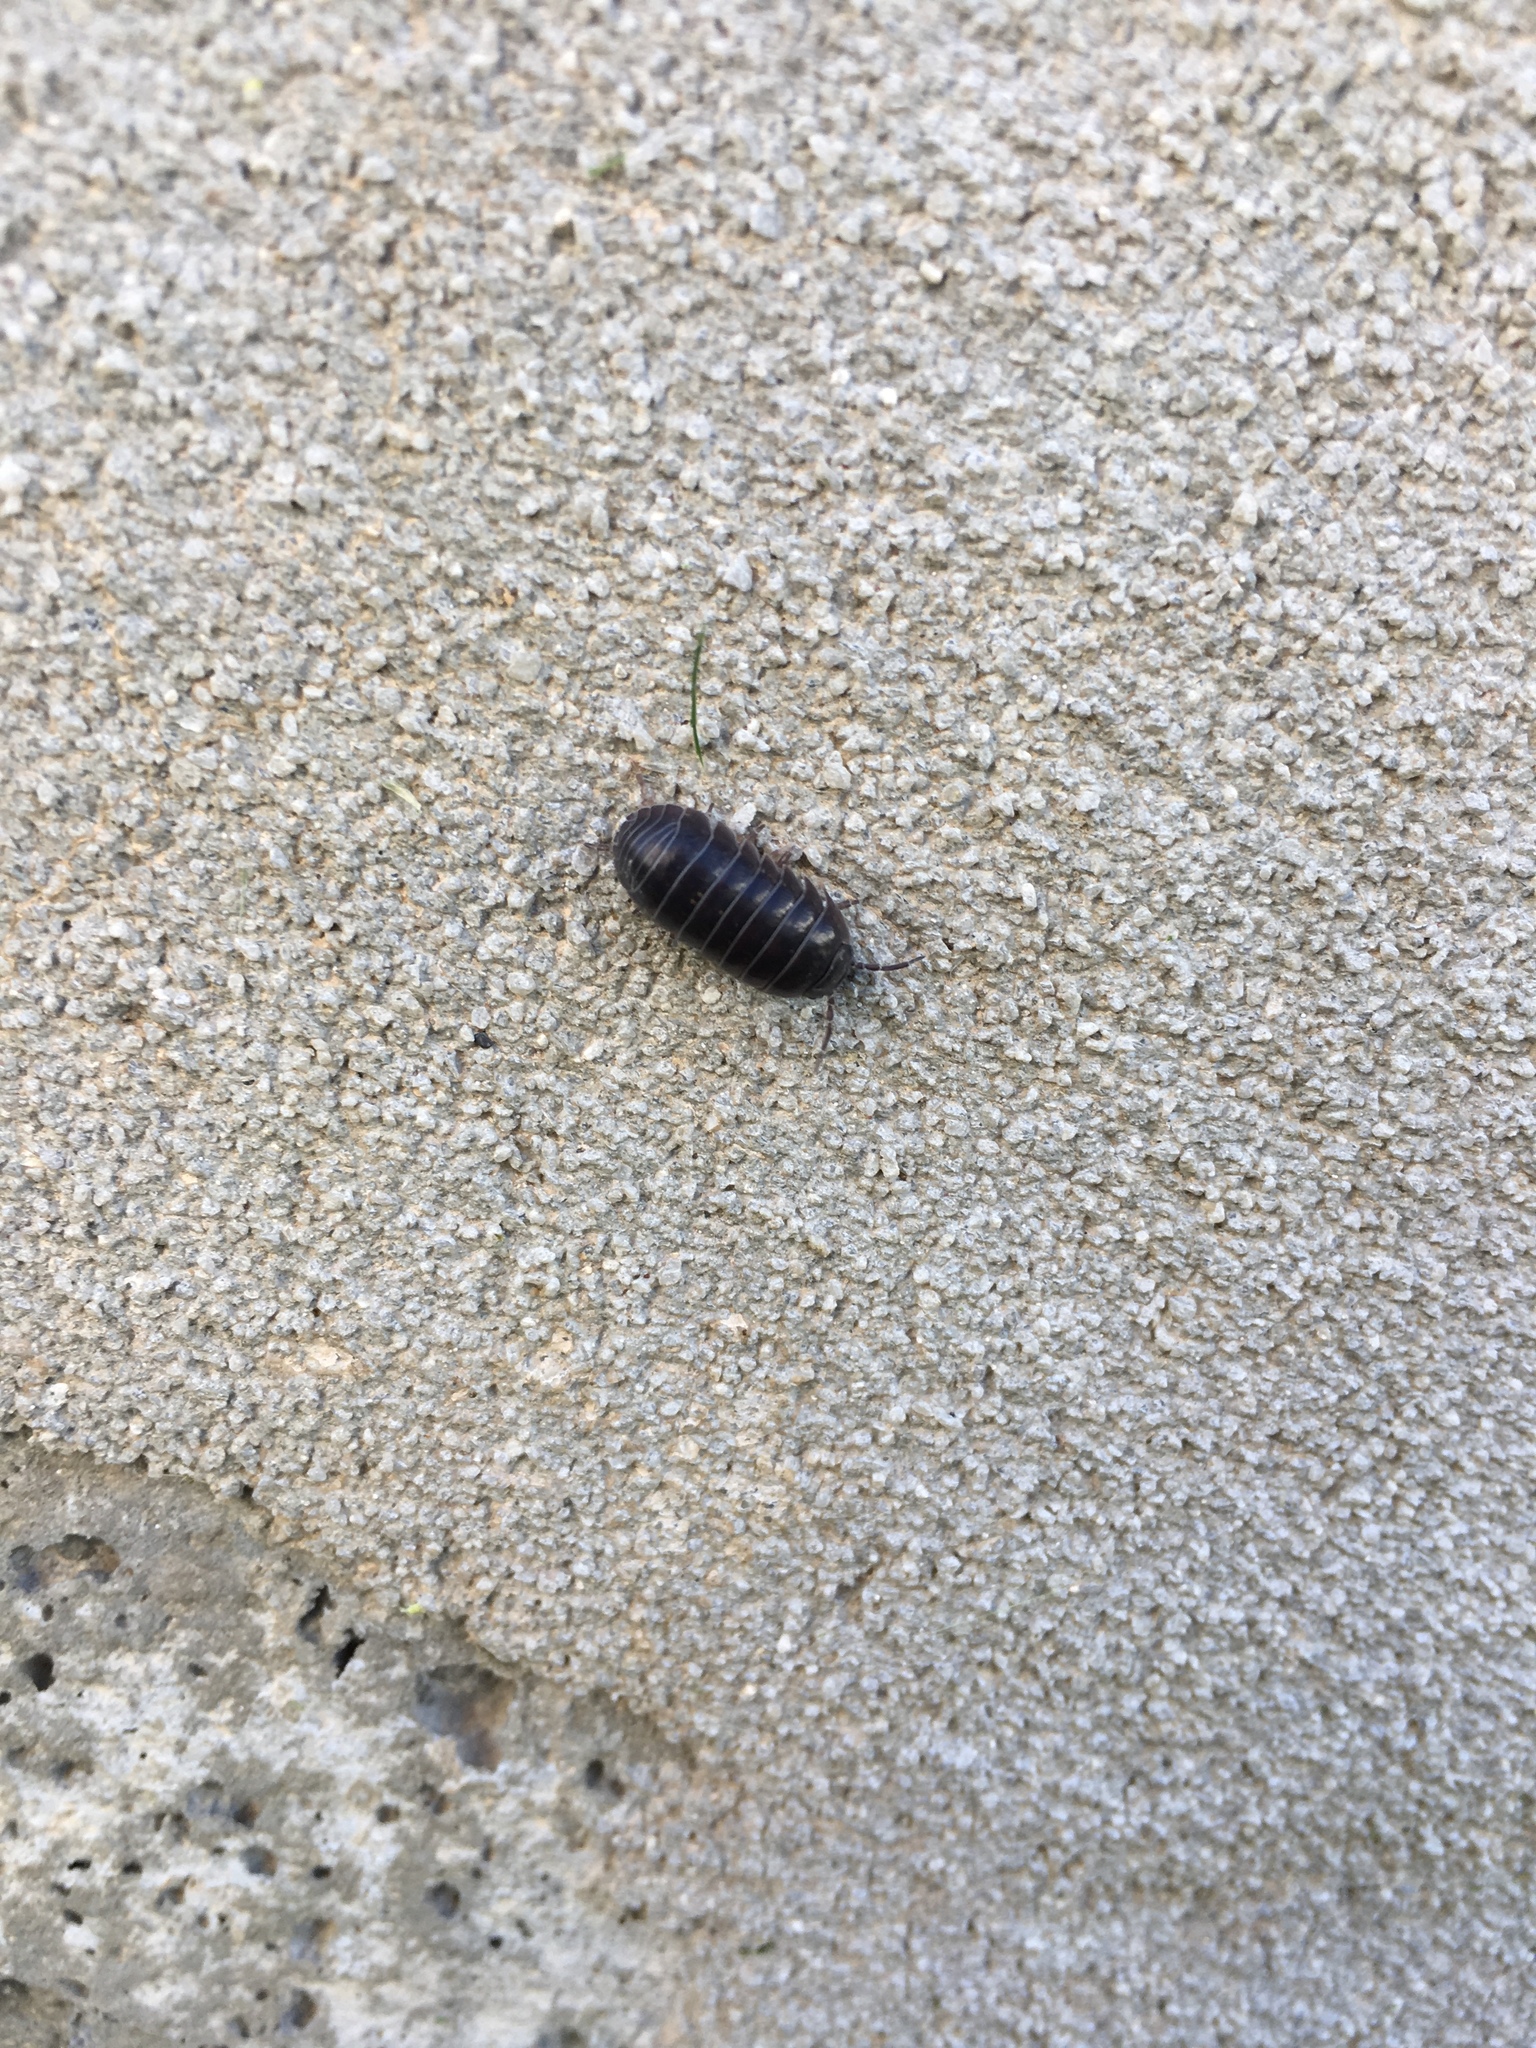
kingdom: Animalia
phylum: Arthropoda
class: Malacostraca
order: Isopoda
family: Armadillidiidae
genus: Armadillidium
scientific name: Armadillidium vulgare
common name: Common pill woodlouse
